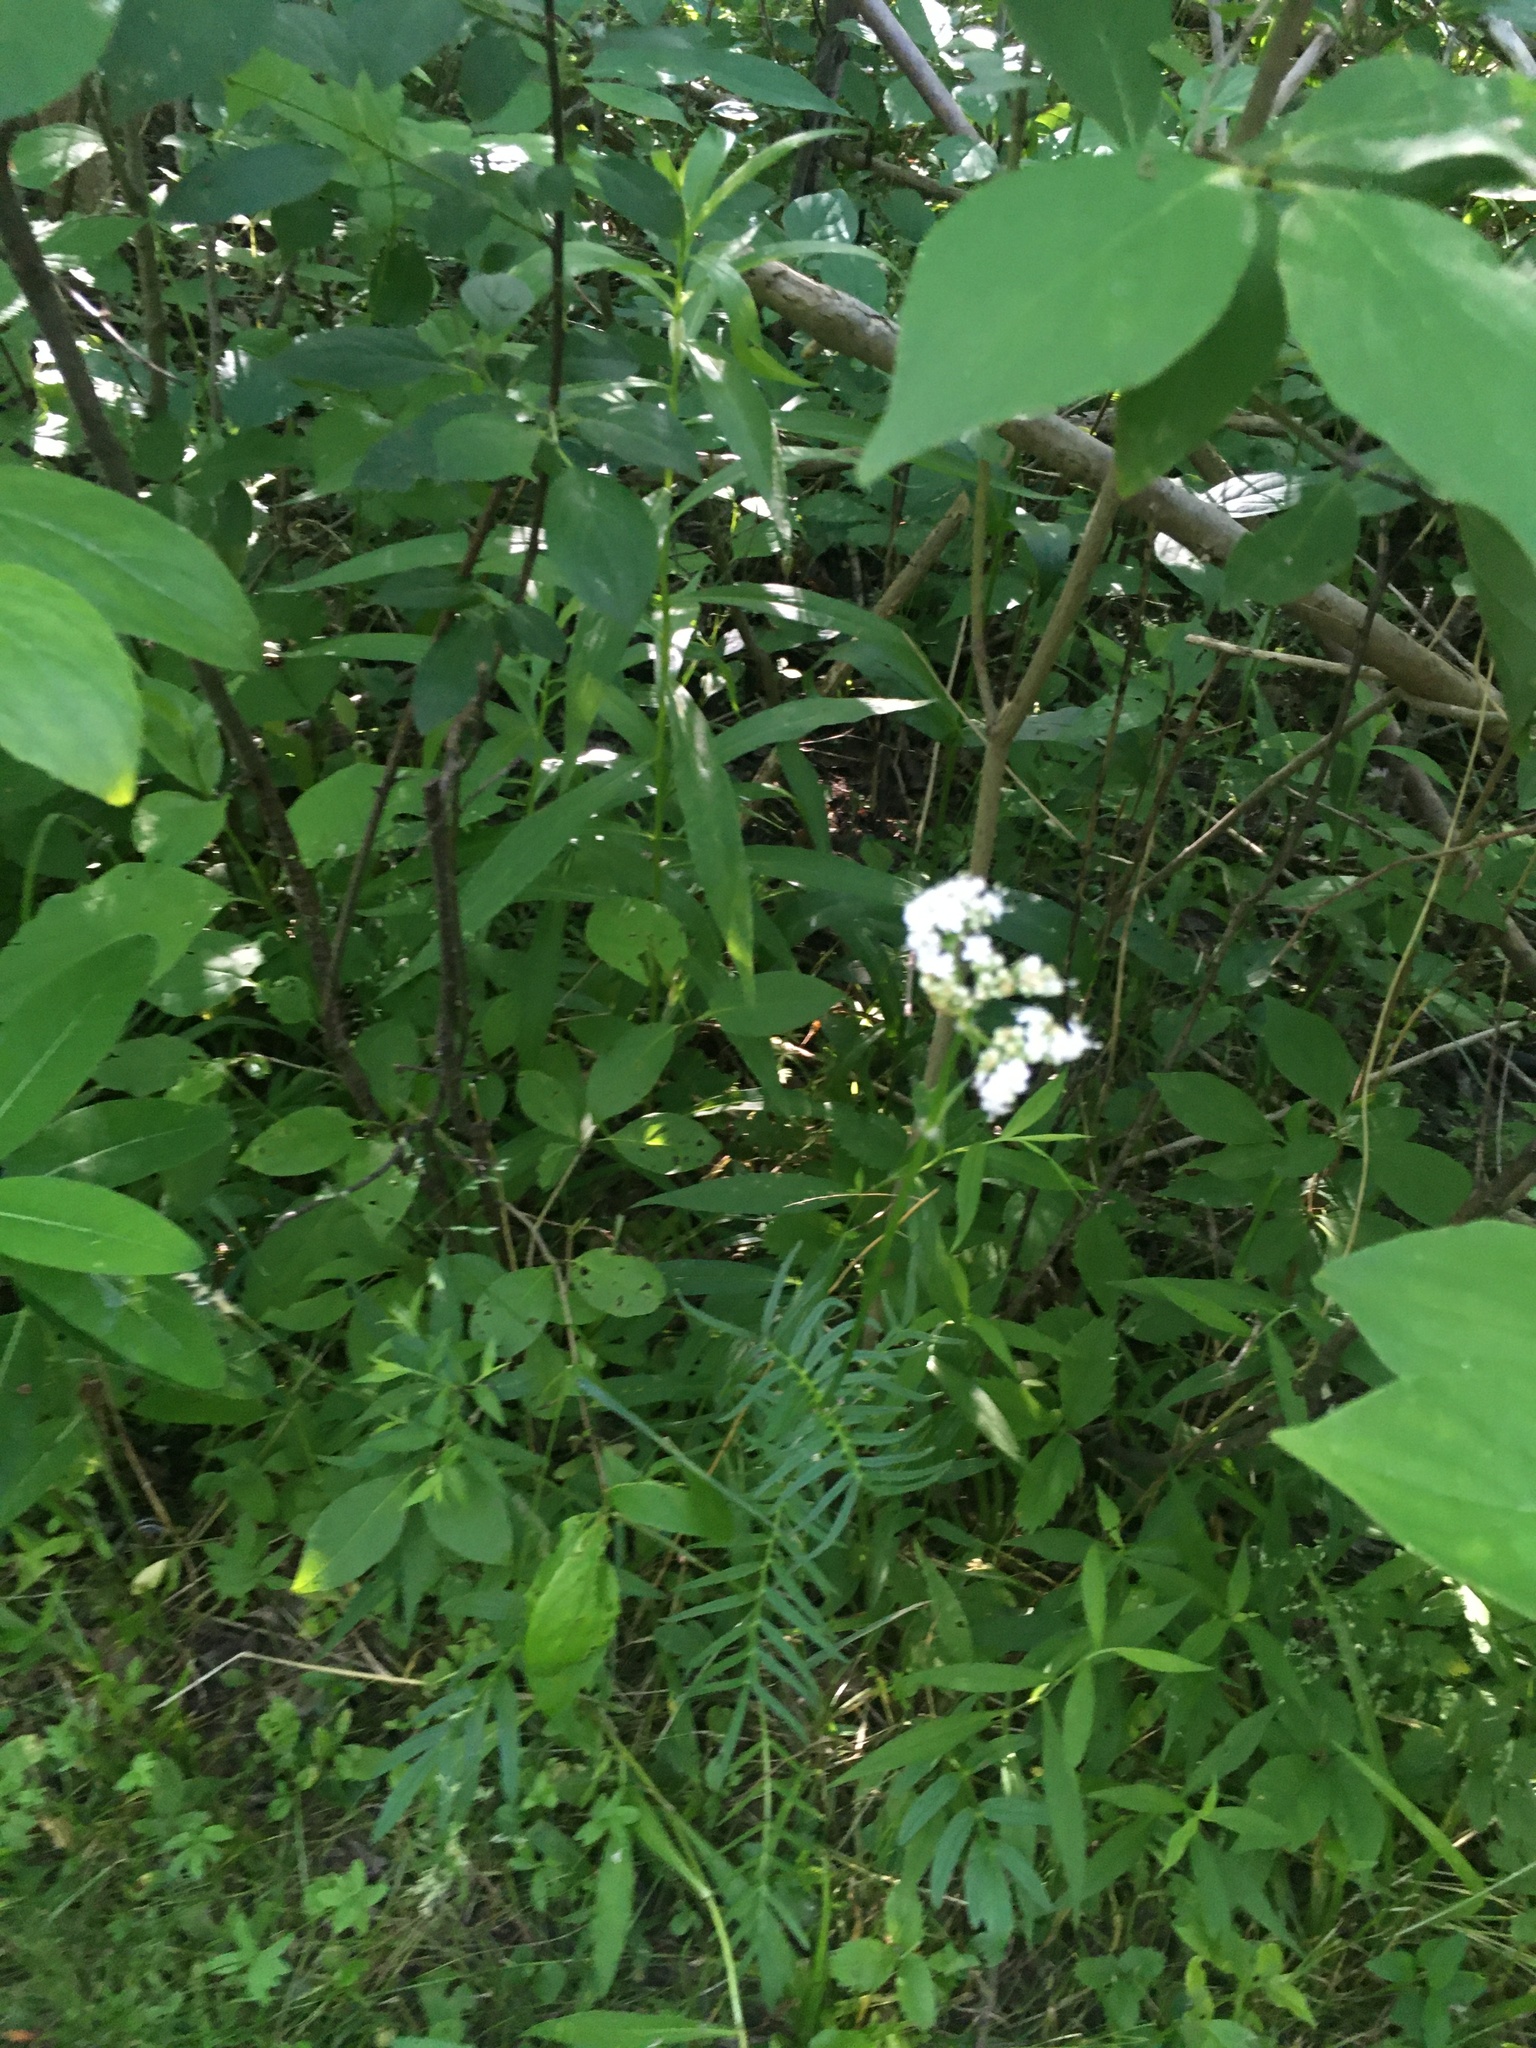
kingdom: Plantae
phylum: Tracheophyta
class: Magnoliopsida
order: Dipsacales
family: Caprifoliaceae
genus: Valeriana
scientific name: Valeriana officinalis
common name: Common valerian
